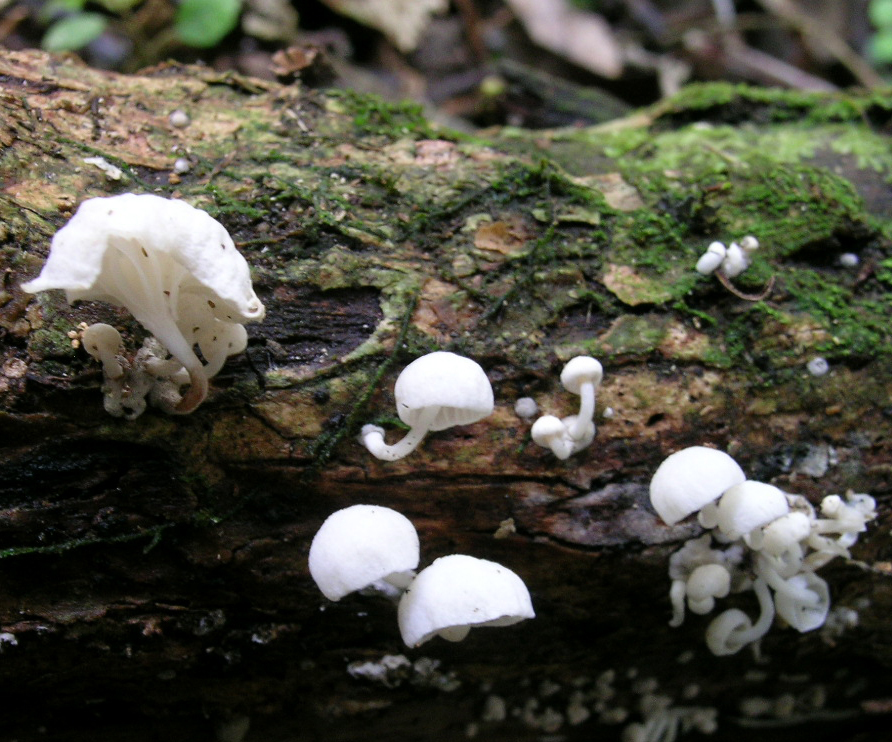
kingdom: Fungi
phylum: Basidiomycota
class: Agaricomycetes
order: Agaricales
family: Omphalotaceae
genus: Marasmiellus
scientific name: Marasmiellus candidus
